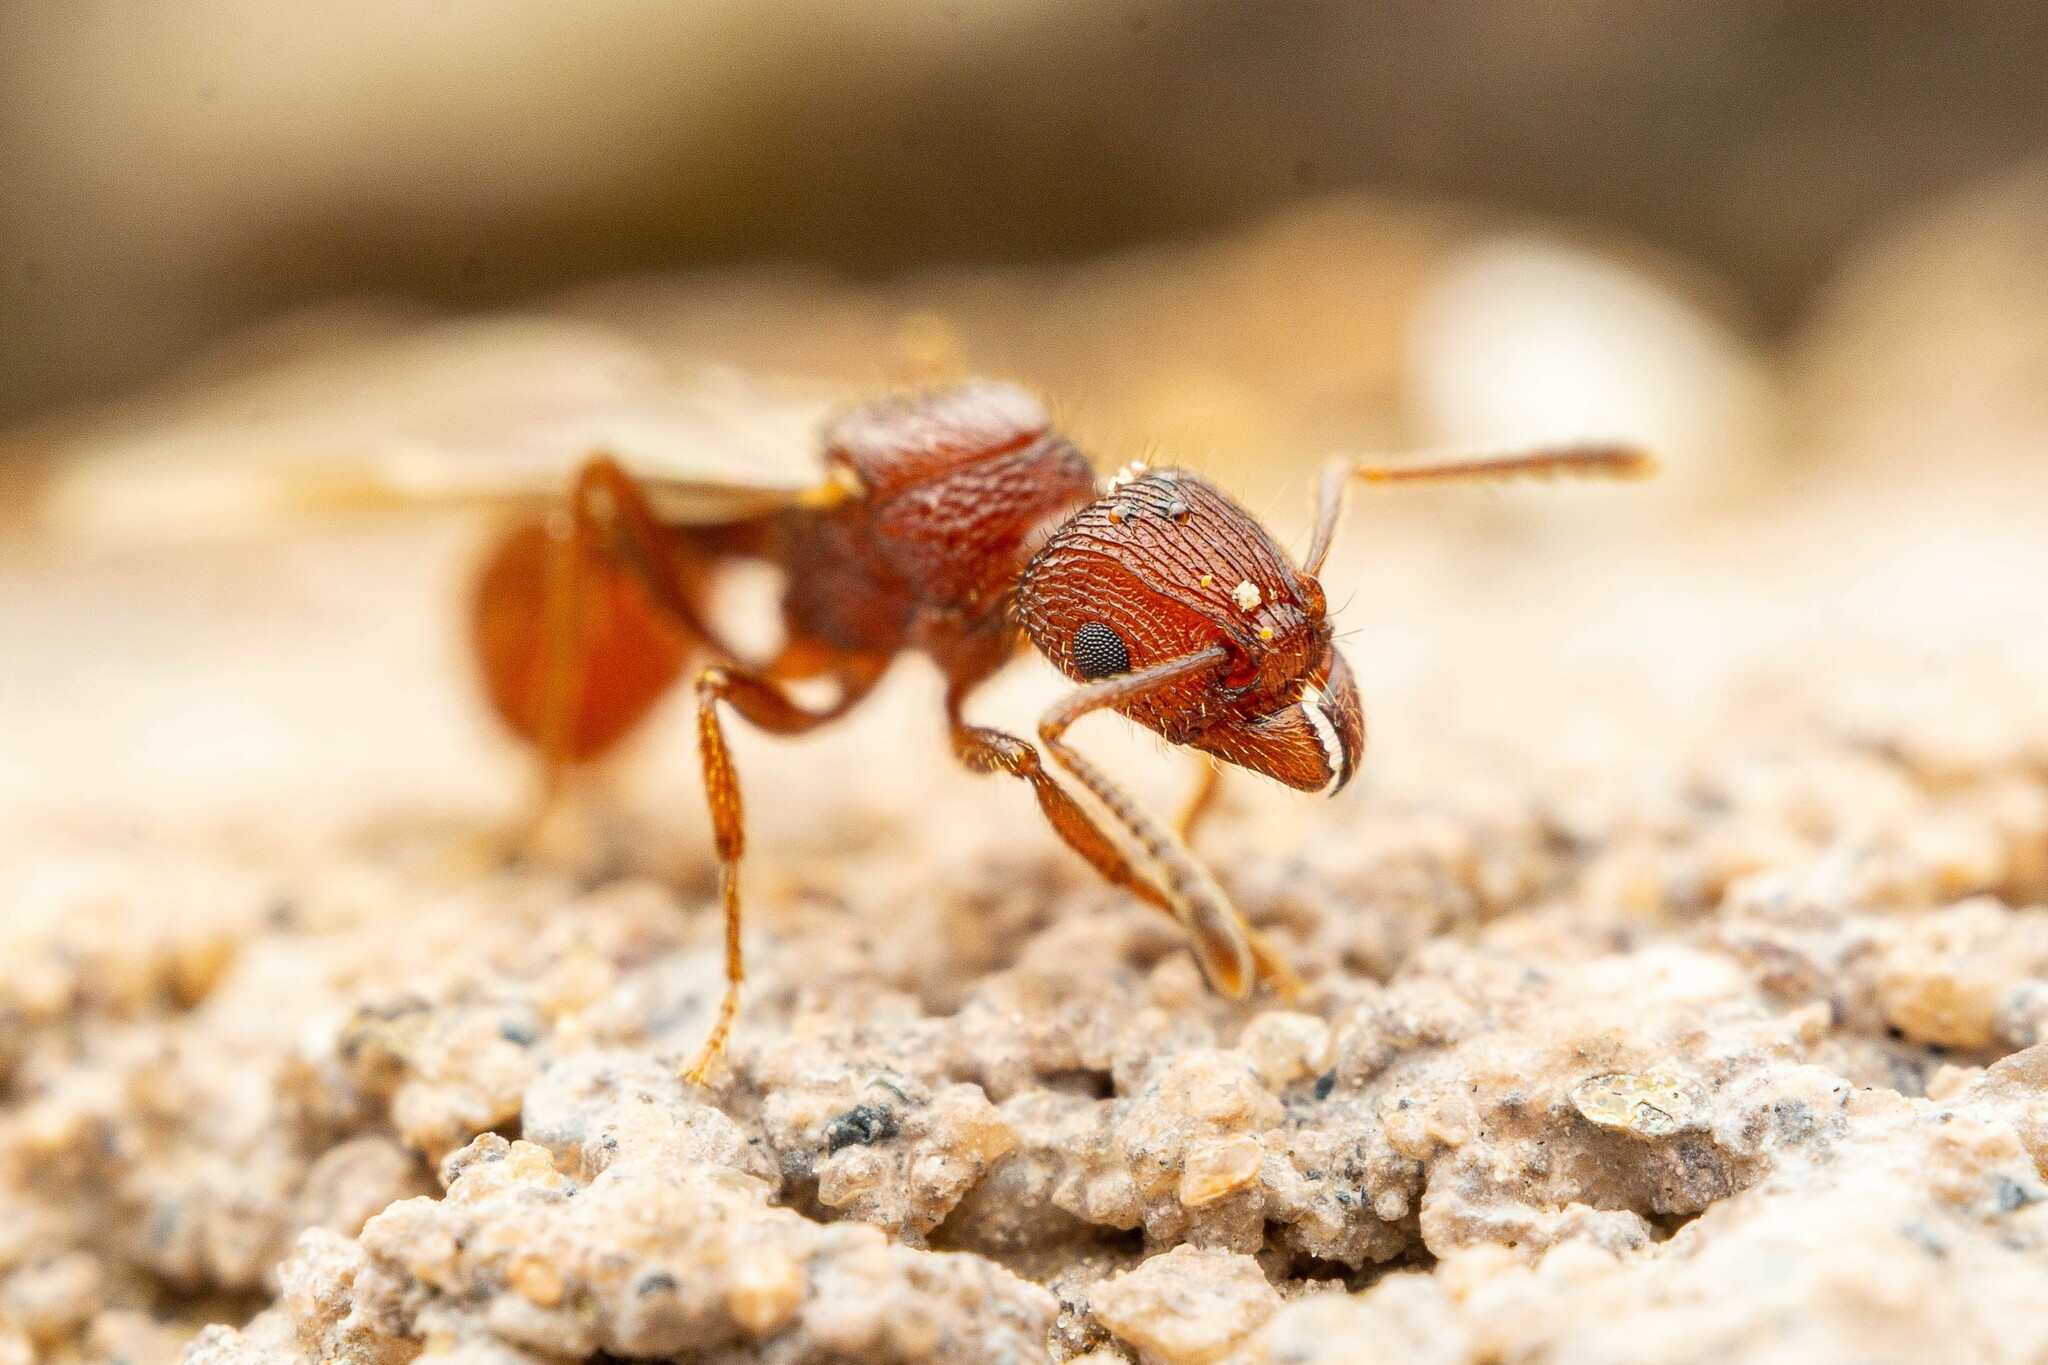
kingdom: Animalia
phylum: Arthropoda
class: Insecta
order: Hymenoptera
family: Formicidae
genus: Tetramorium
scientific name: Tetramorium hispidum
